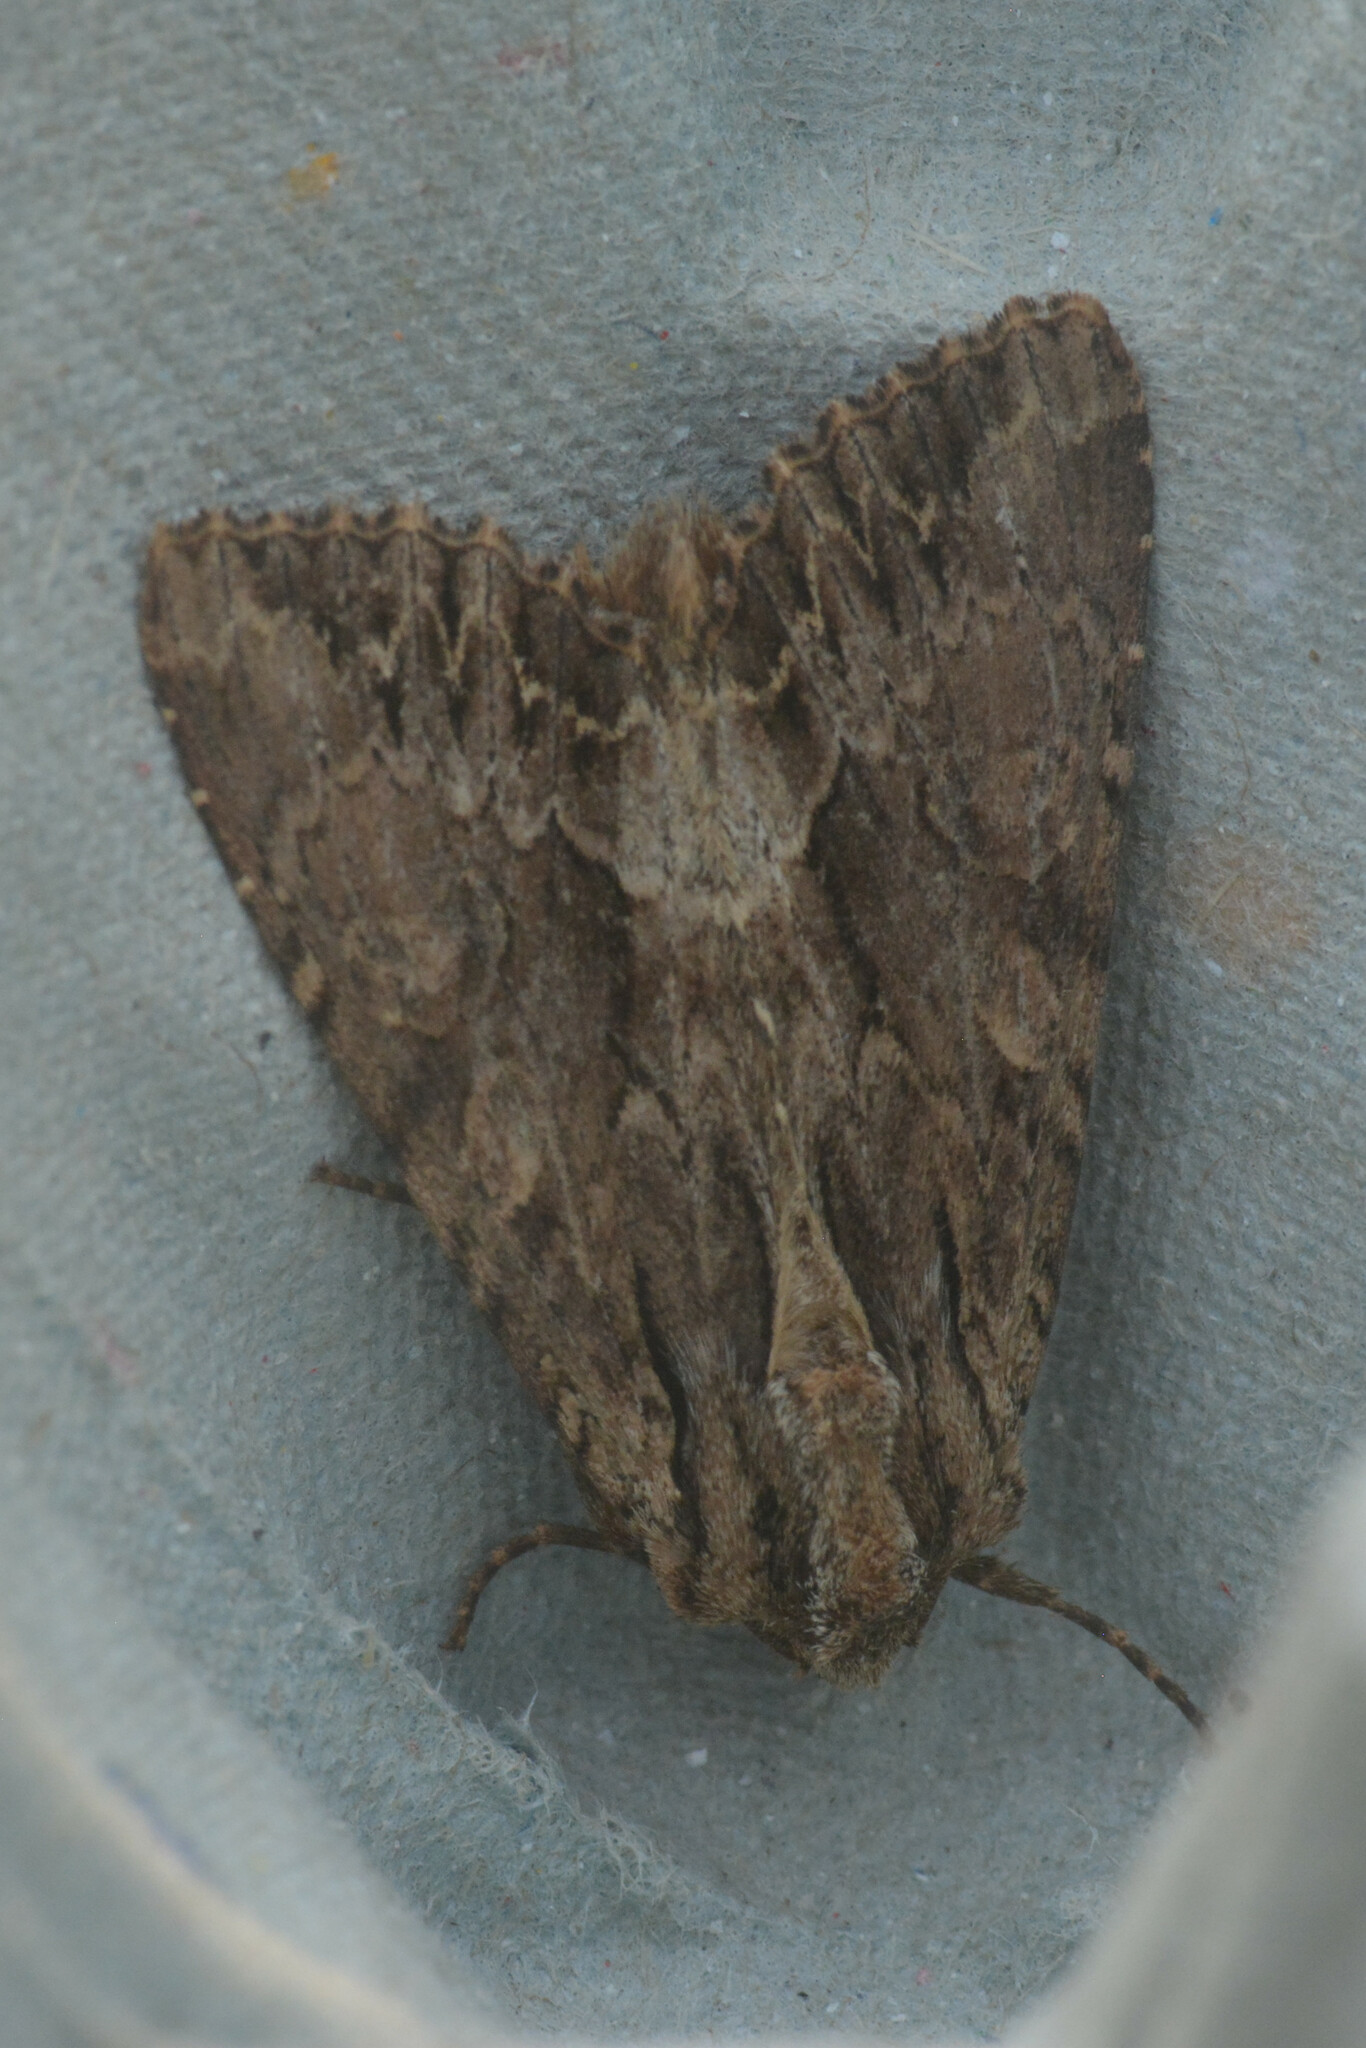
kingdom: Animalia
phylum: Arthropoda
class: Insecta
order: Lepidoptera
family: Noctuidae
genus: Apamea
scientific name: Apamea monoglypha
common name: Dark arches
